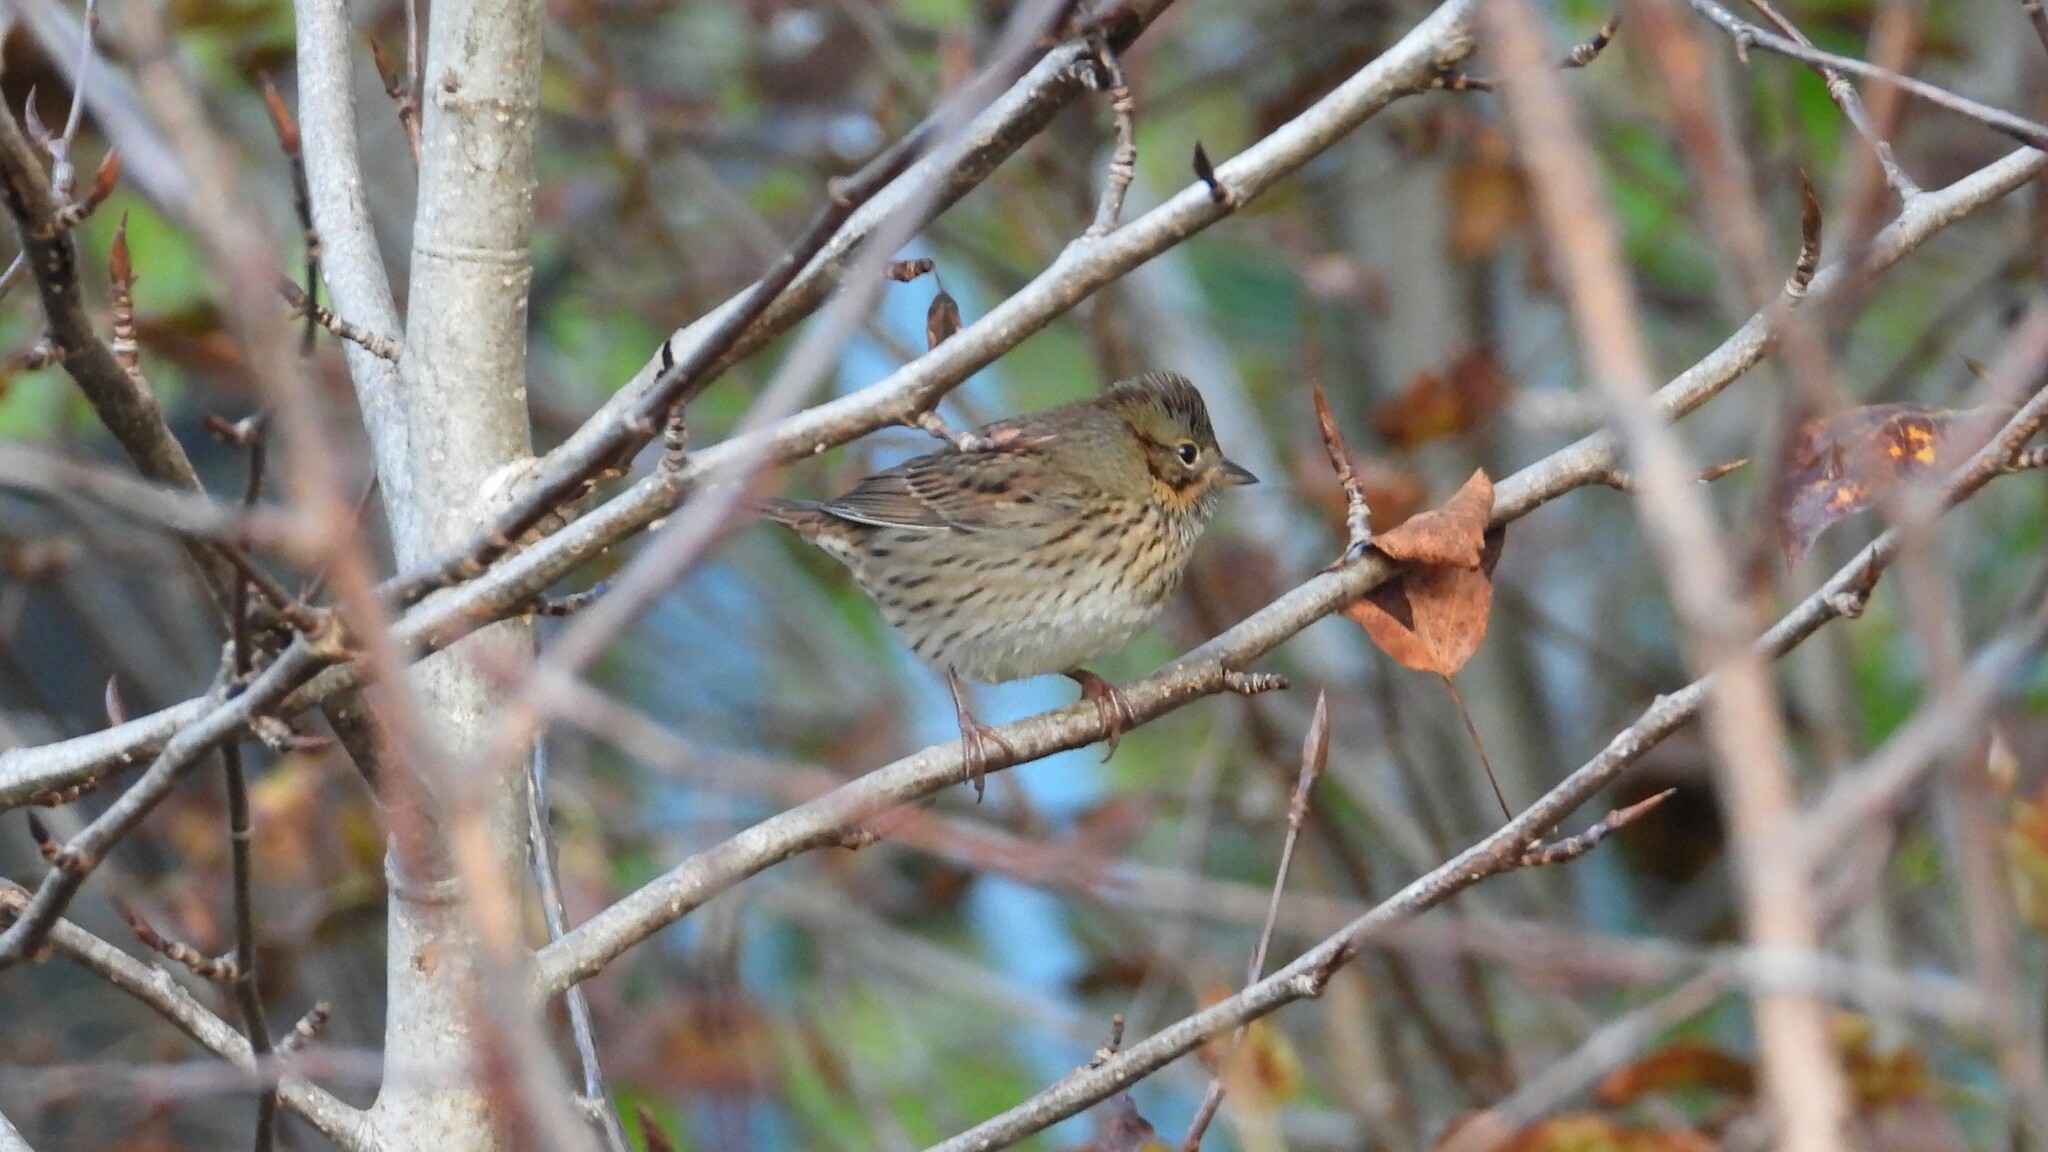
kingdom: Animalia
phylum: Chordata
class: Aves
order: Passeriformes
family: Passerellidae
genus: Melospiza
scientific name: Melospiza lincolnii
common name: Lincoln's sparrow
